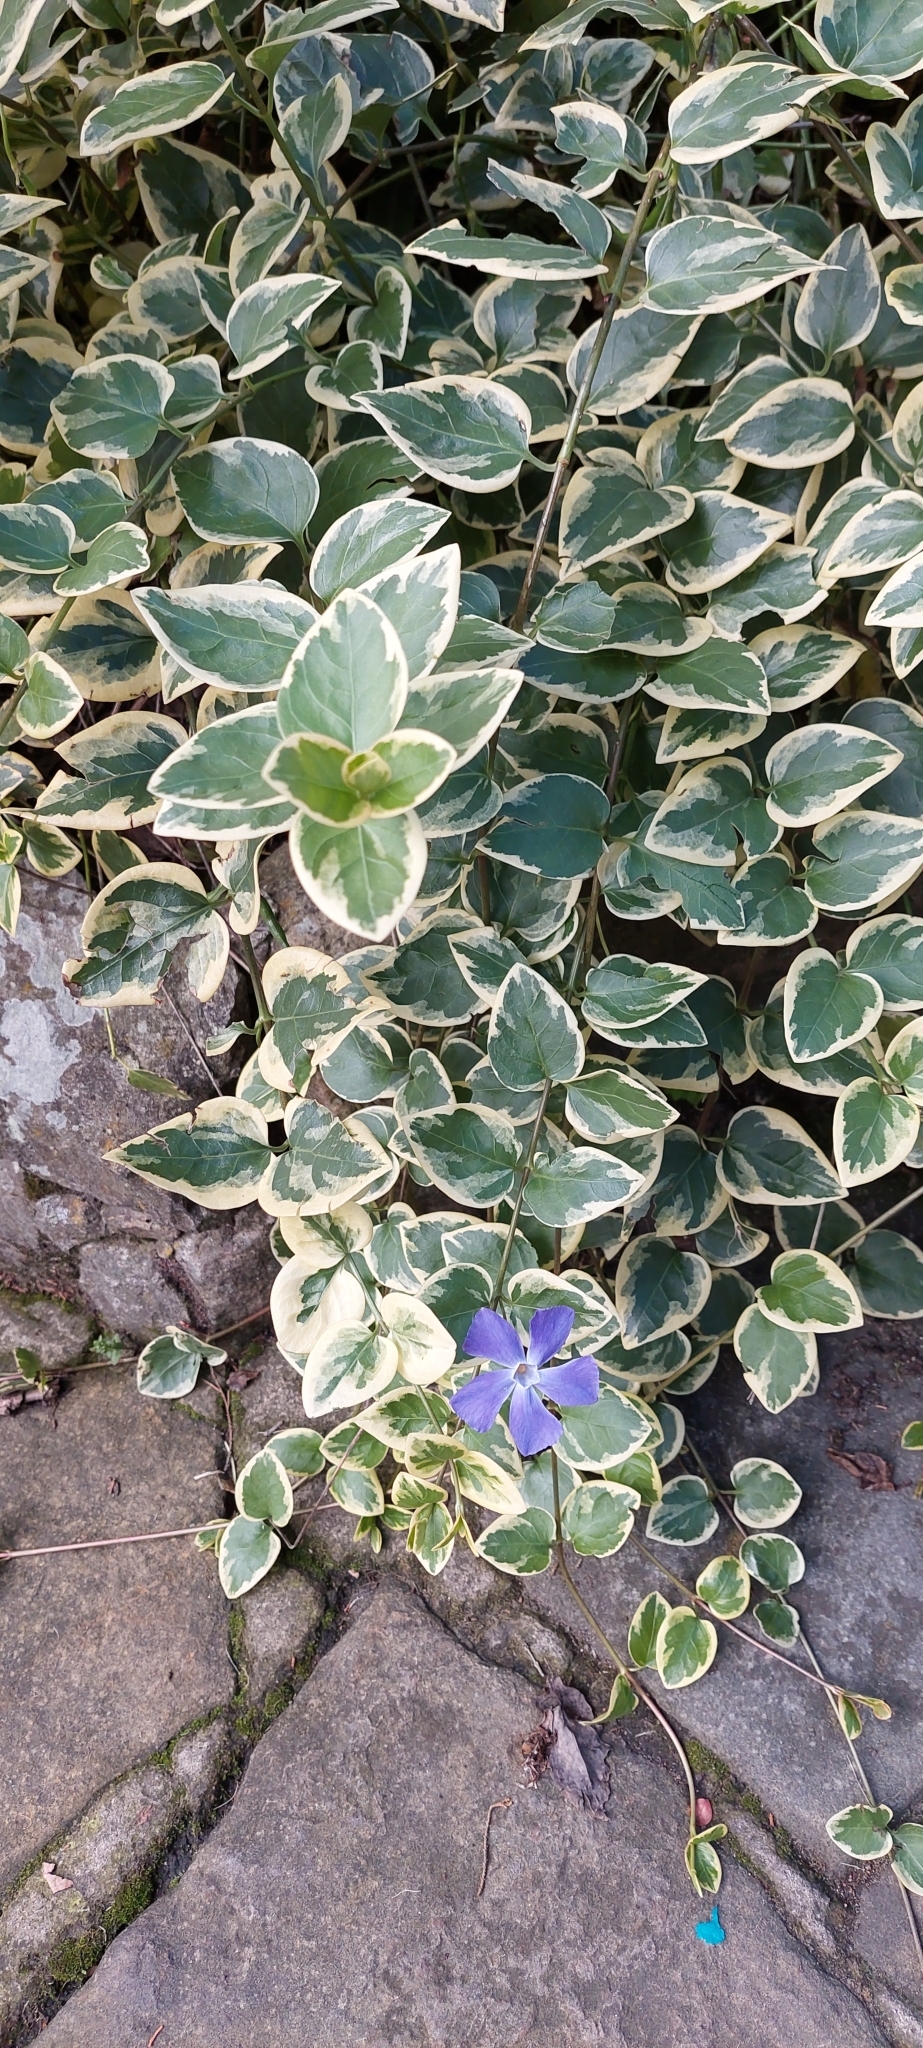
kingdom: Plantae
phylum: Tracheophyta
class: Magnoliopsida
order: Gentianales
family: Apocynaceae
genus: Vinca
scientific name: Vinca major
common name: Greater periwinkle
